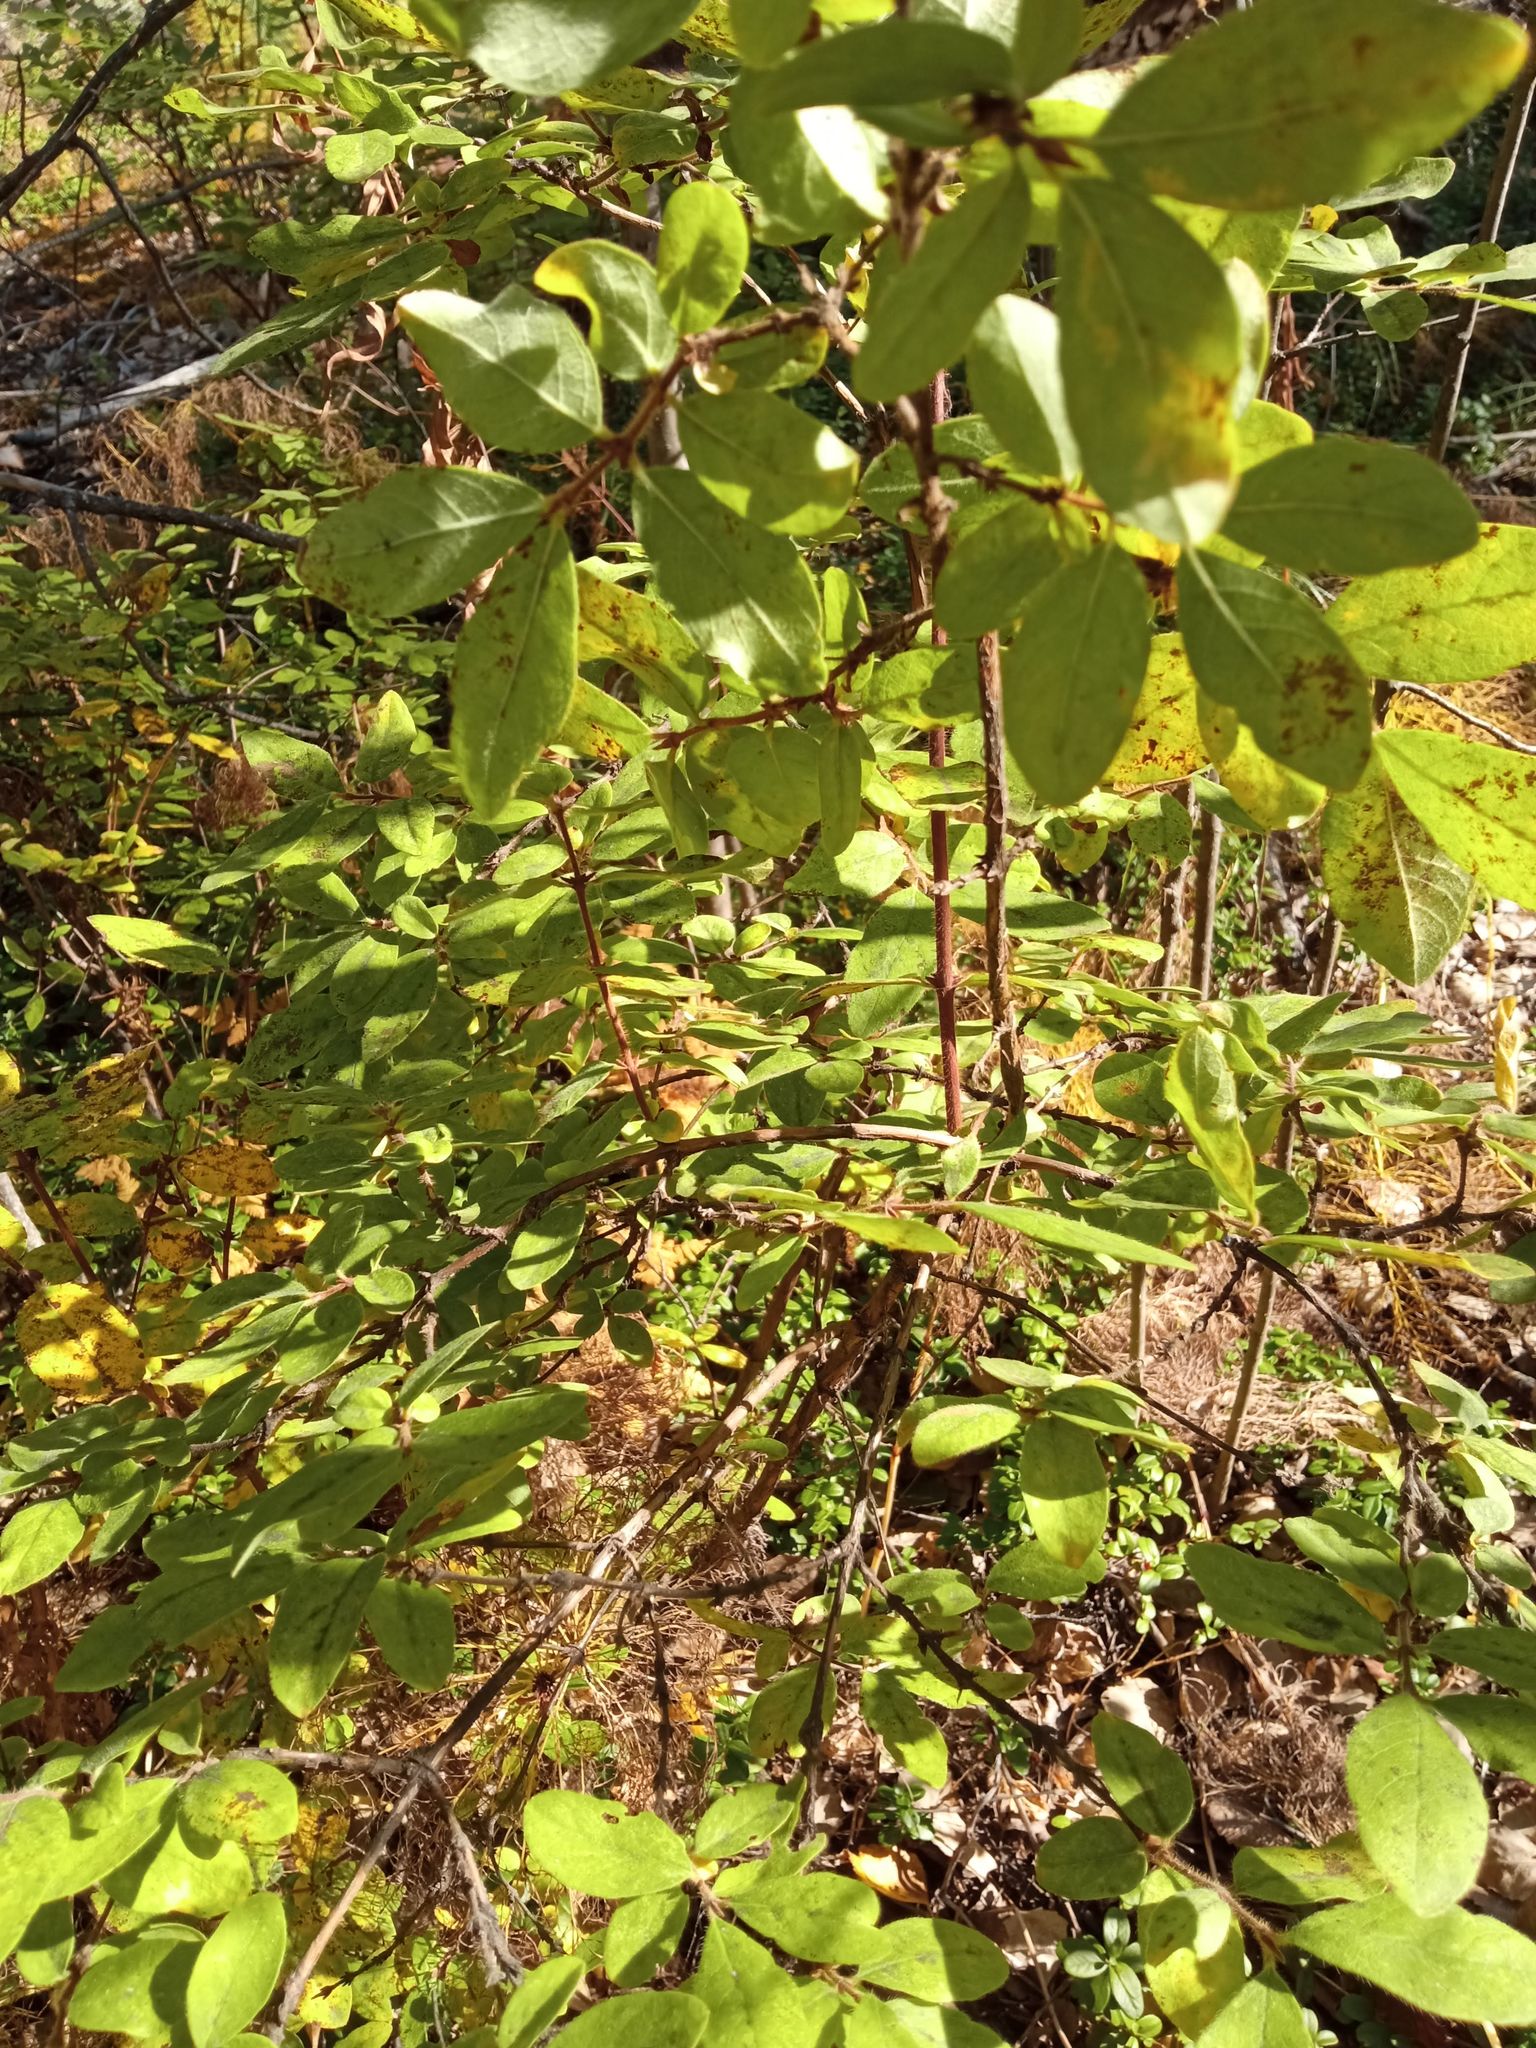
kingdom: Plantae
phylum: Tracheophyta
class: Magnoliopsida
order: Dipsacales
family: Caprifoliaceae
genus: Lonicera
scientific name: Lonicera caerulea
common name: Blue honeysuckle
